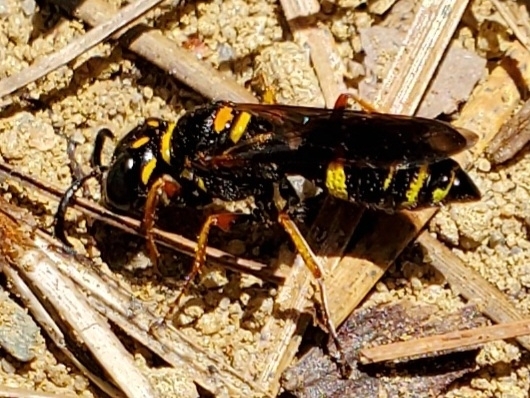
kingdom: Animalia
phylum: Arthropoda
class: Insecta
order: Hymenoptera
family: Crabronidae
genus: Philanthus
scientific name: Philanthus gibbosus
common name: Humped beewolf
